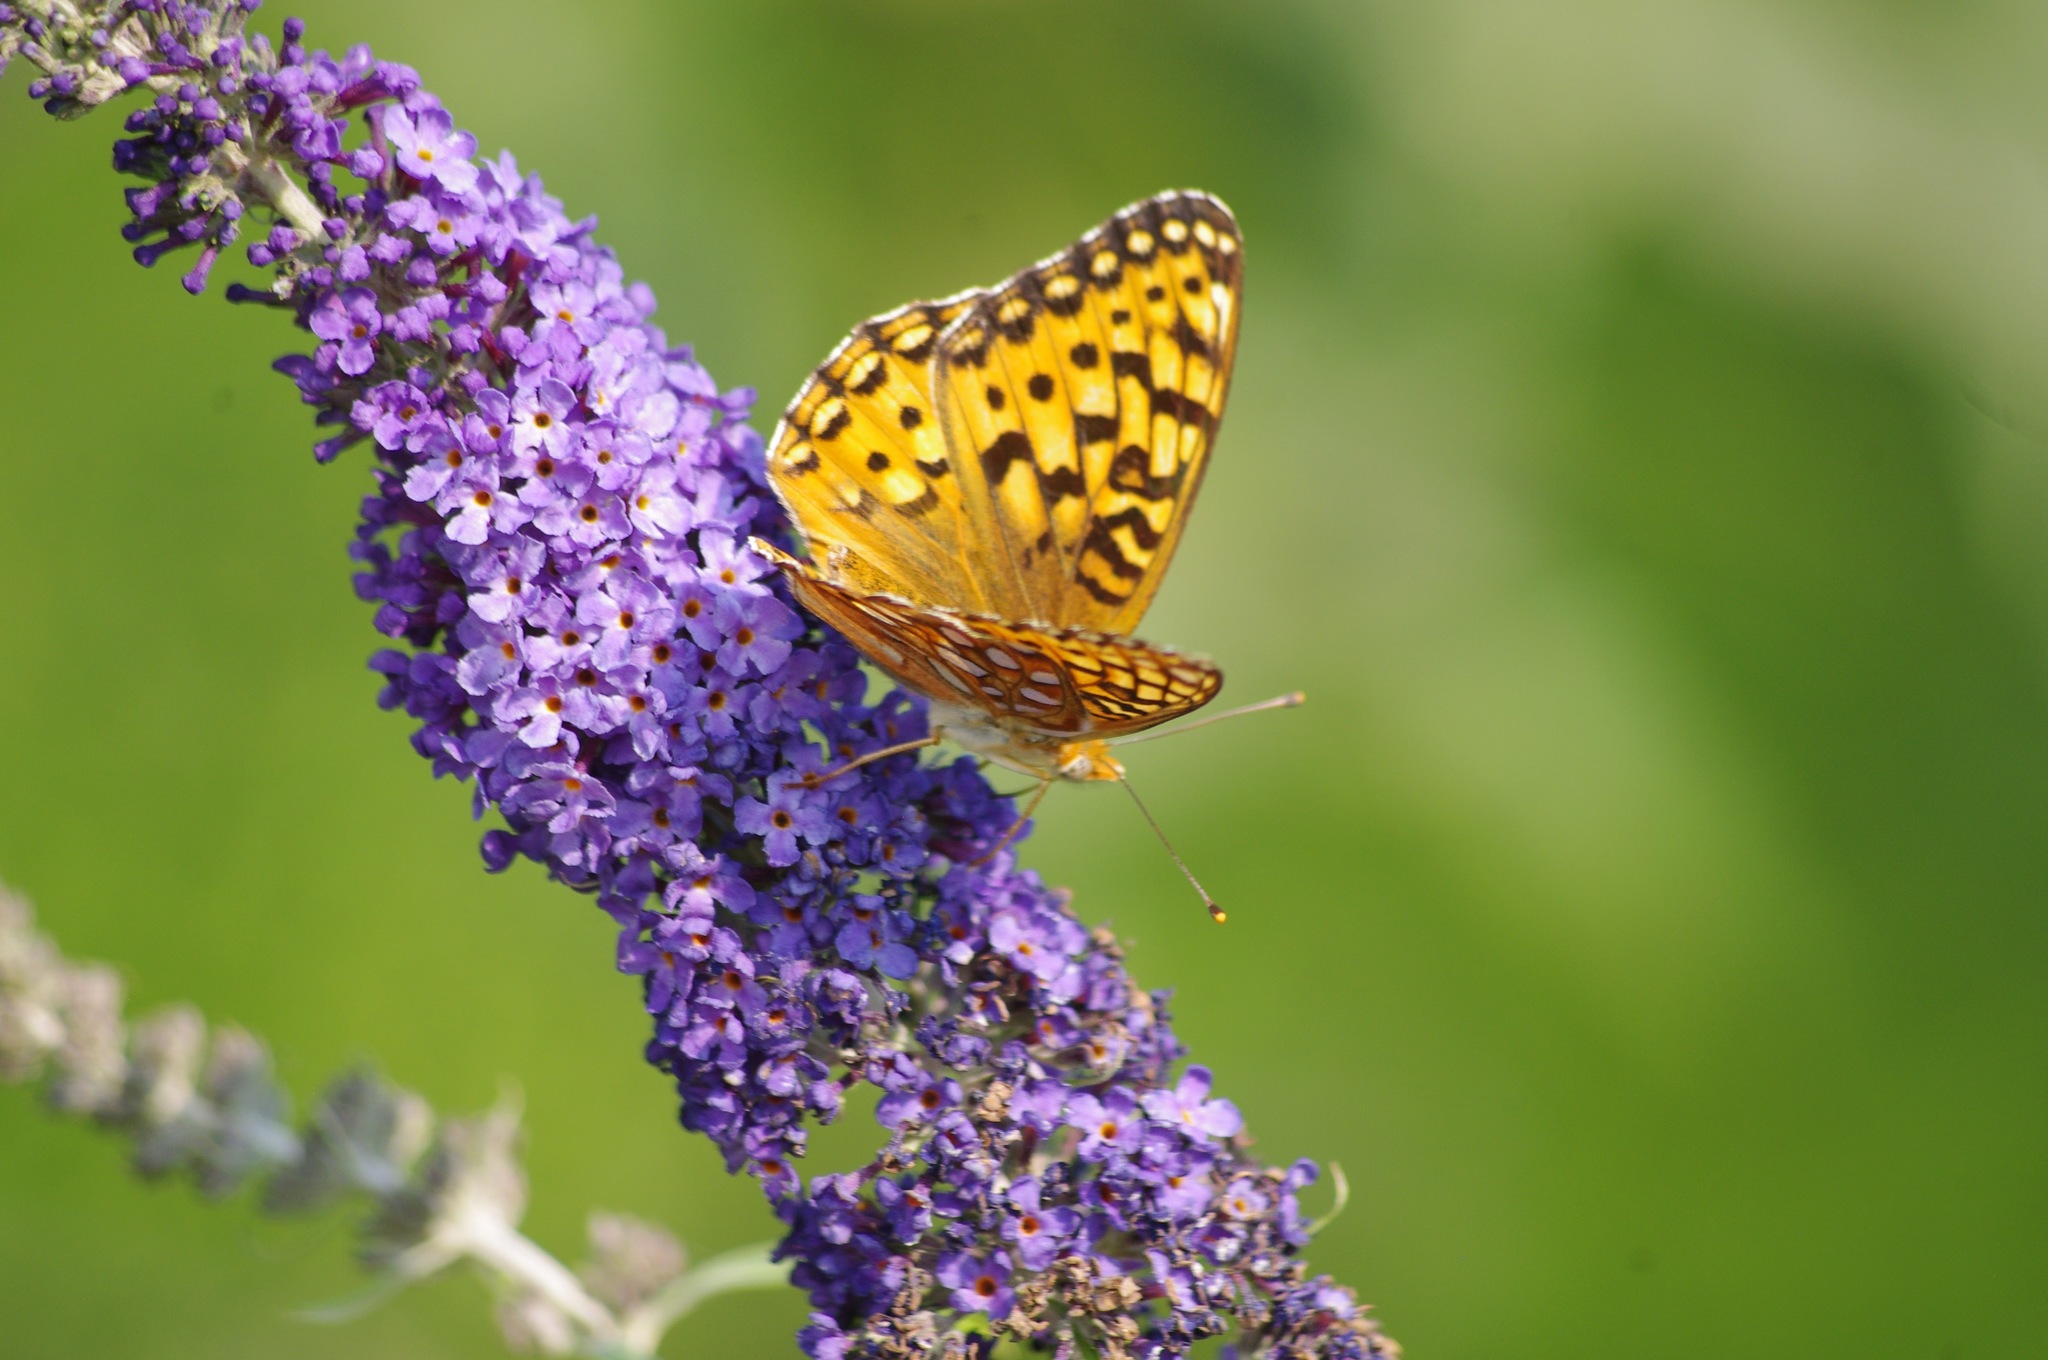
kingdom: Animalia
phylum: Arthropoda
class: Insecta
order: Lepidoptera
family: Nymphalidae
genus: Speyeria
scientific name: Speyeria mormonia
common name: Mormon fritillary
